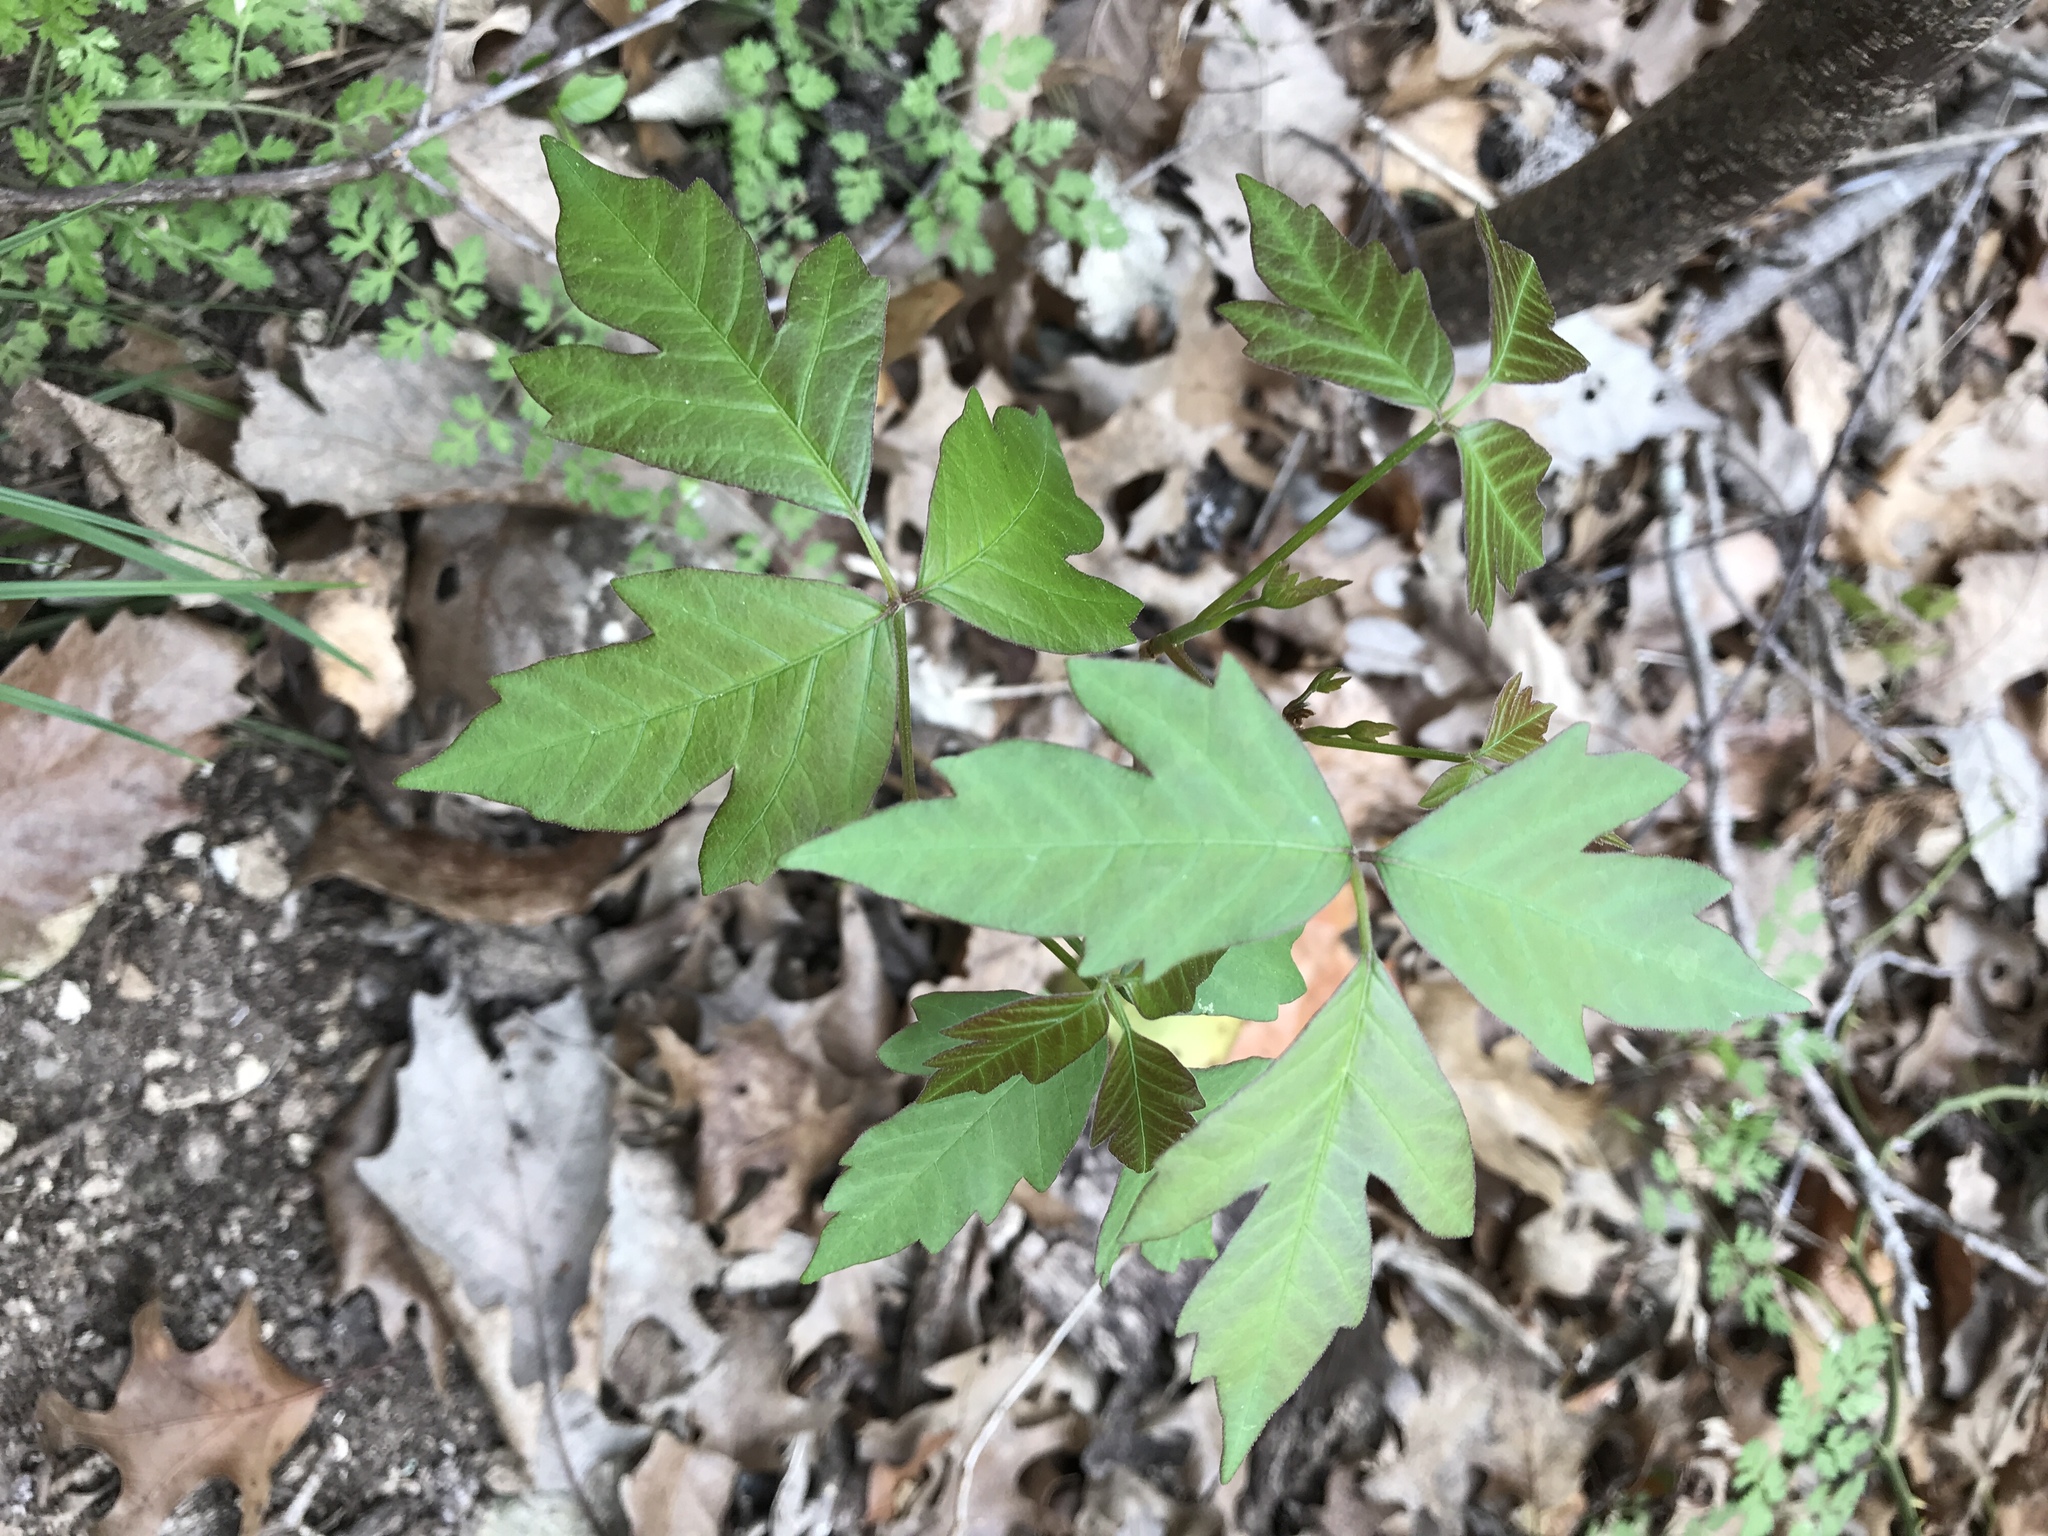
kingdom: Plantae
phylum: Tracheophyta
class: Magnoliopsida
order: Sapindales
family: Anacardiaceae
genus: Toxicodendron
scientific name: Toxicodendron radicans
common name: Poison ivy
